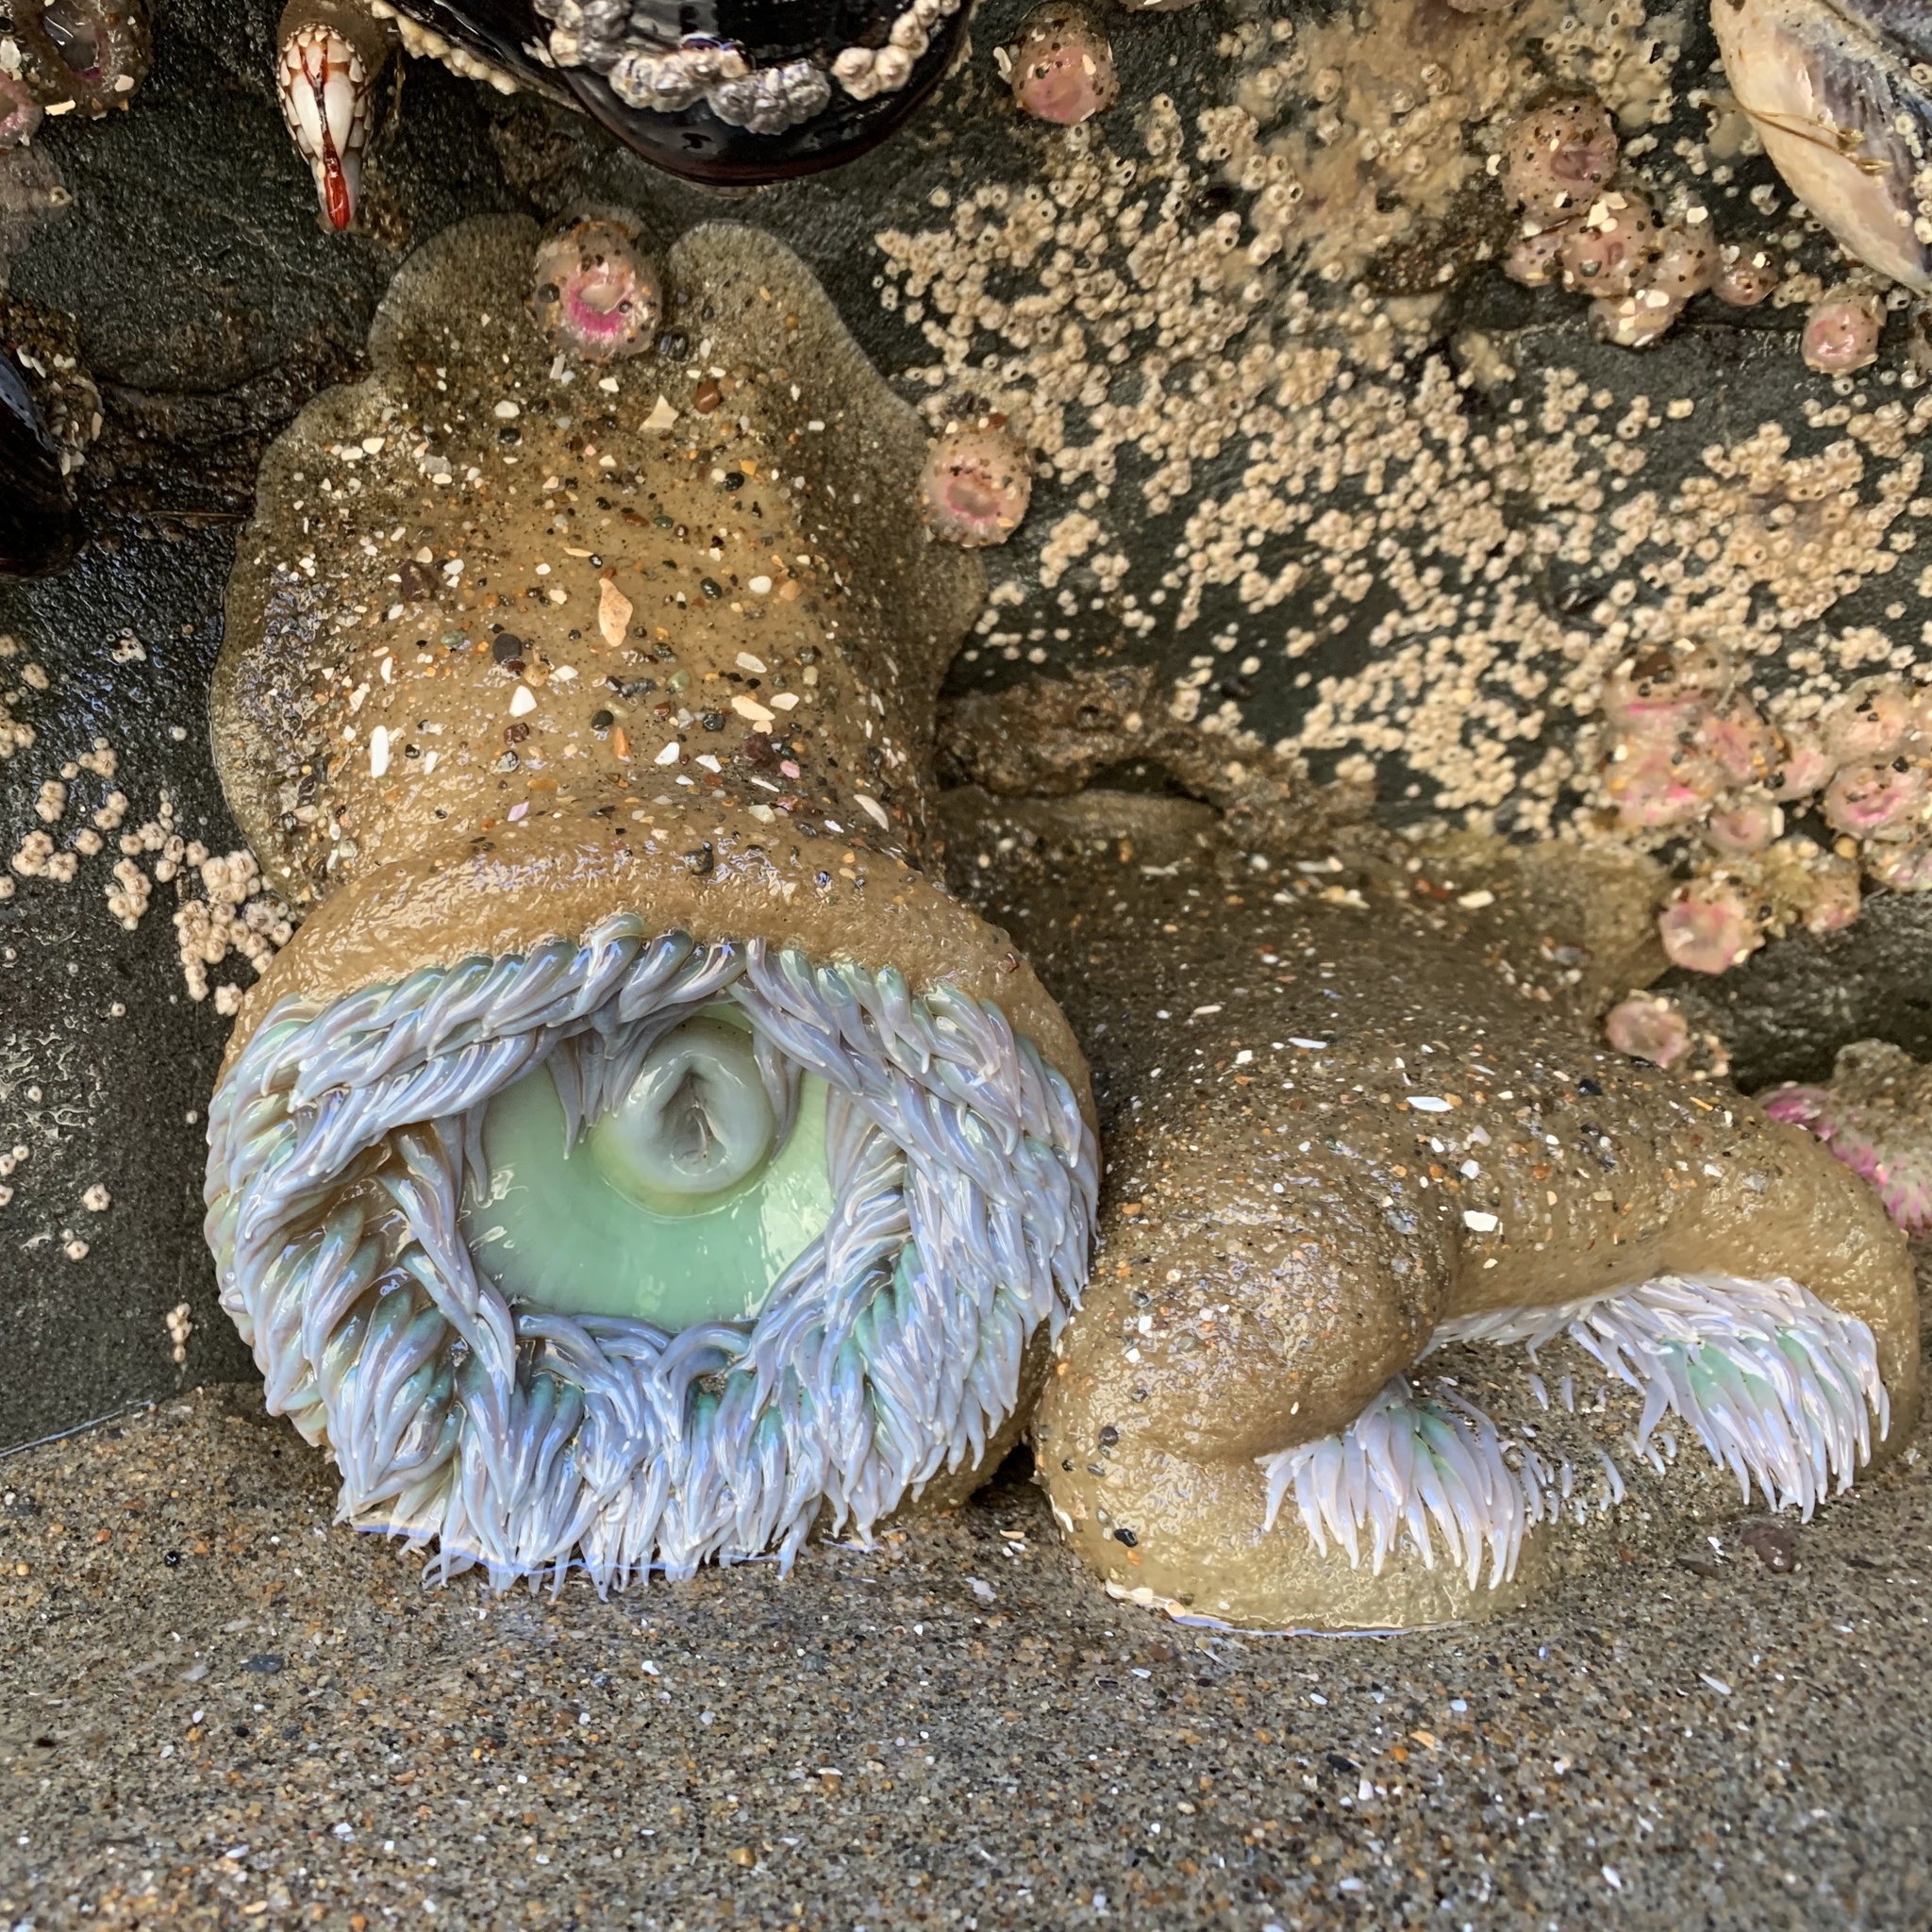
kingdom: Animalia
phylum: Cnidaria
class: Anthozoa
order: Actiniaria
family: Actiniidae
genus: Anthopleura
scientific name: Anthopleura xanthogrammica
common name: Giant green anemone
